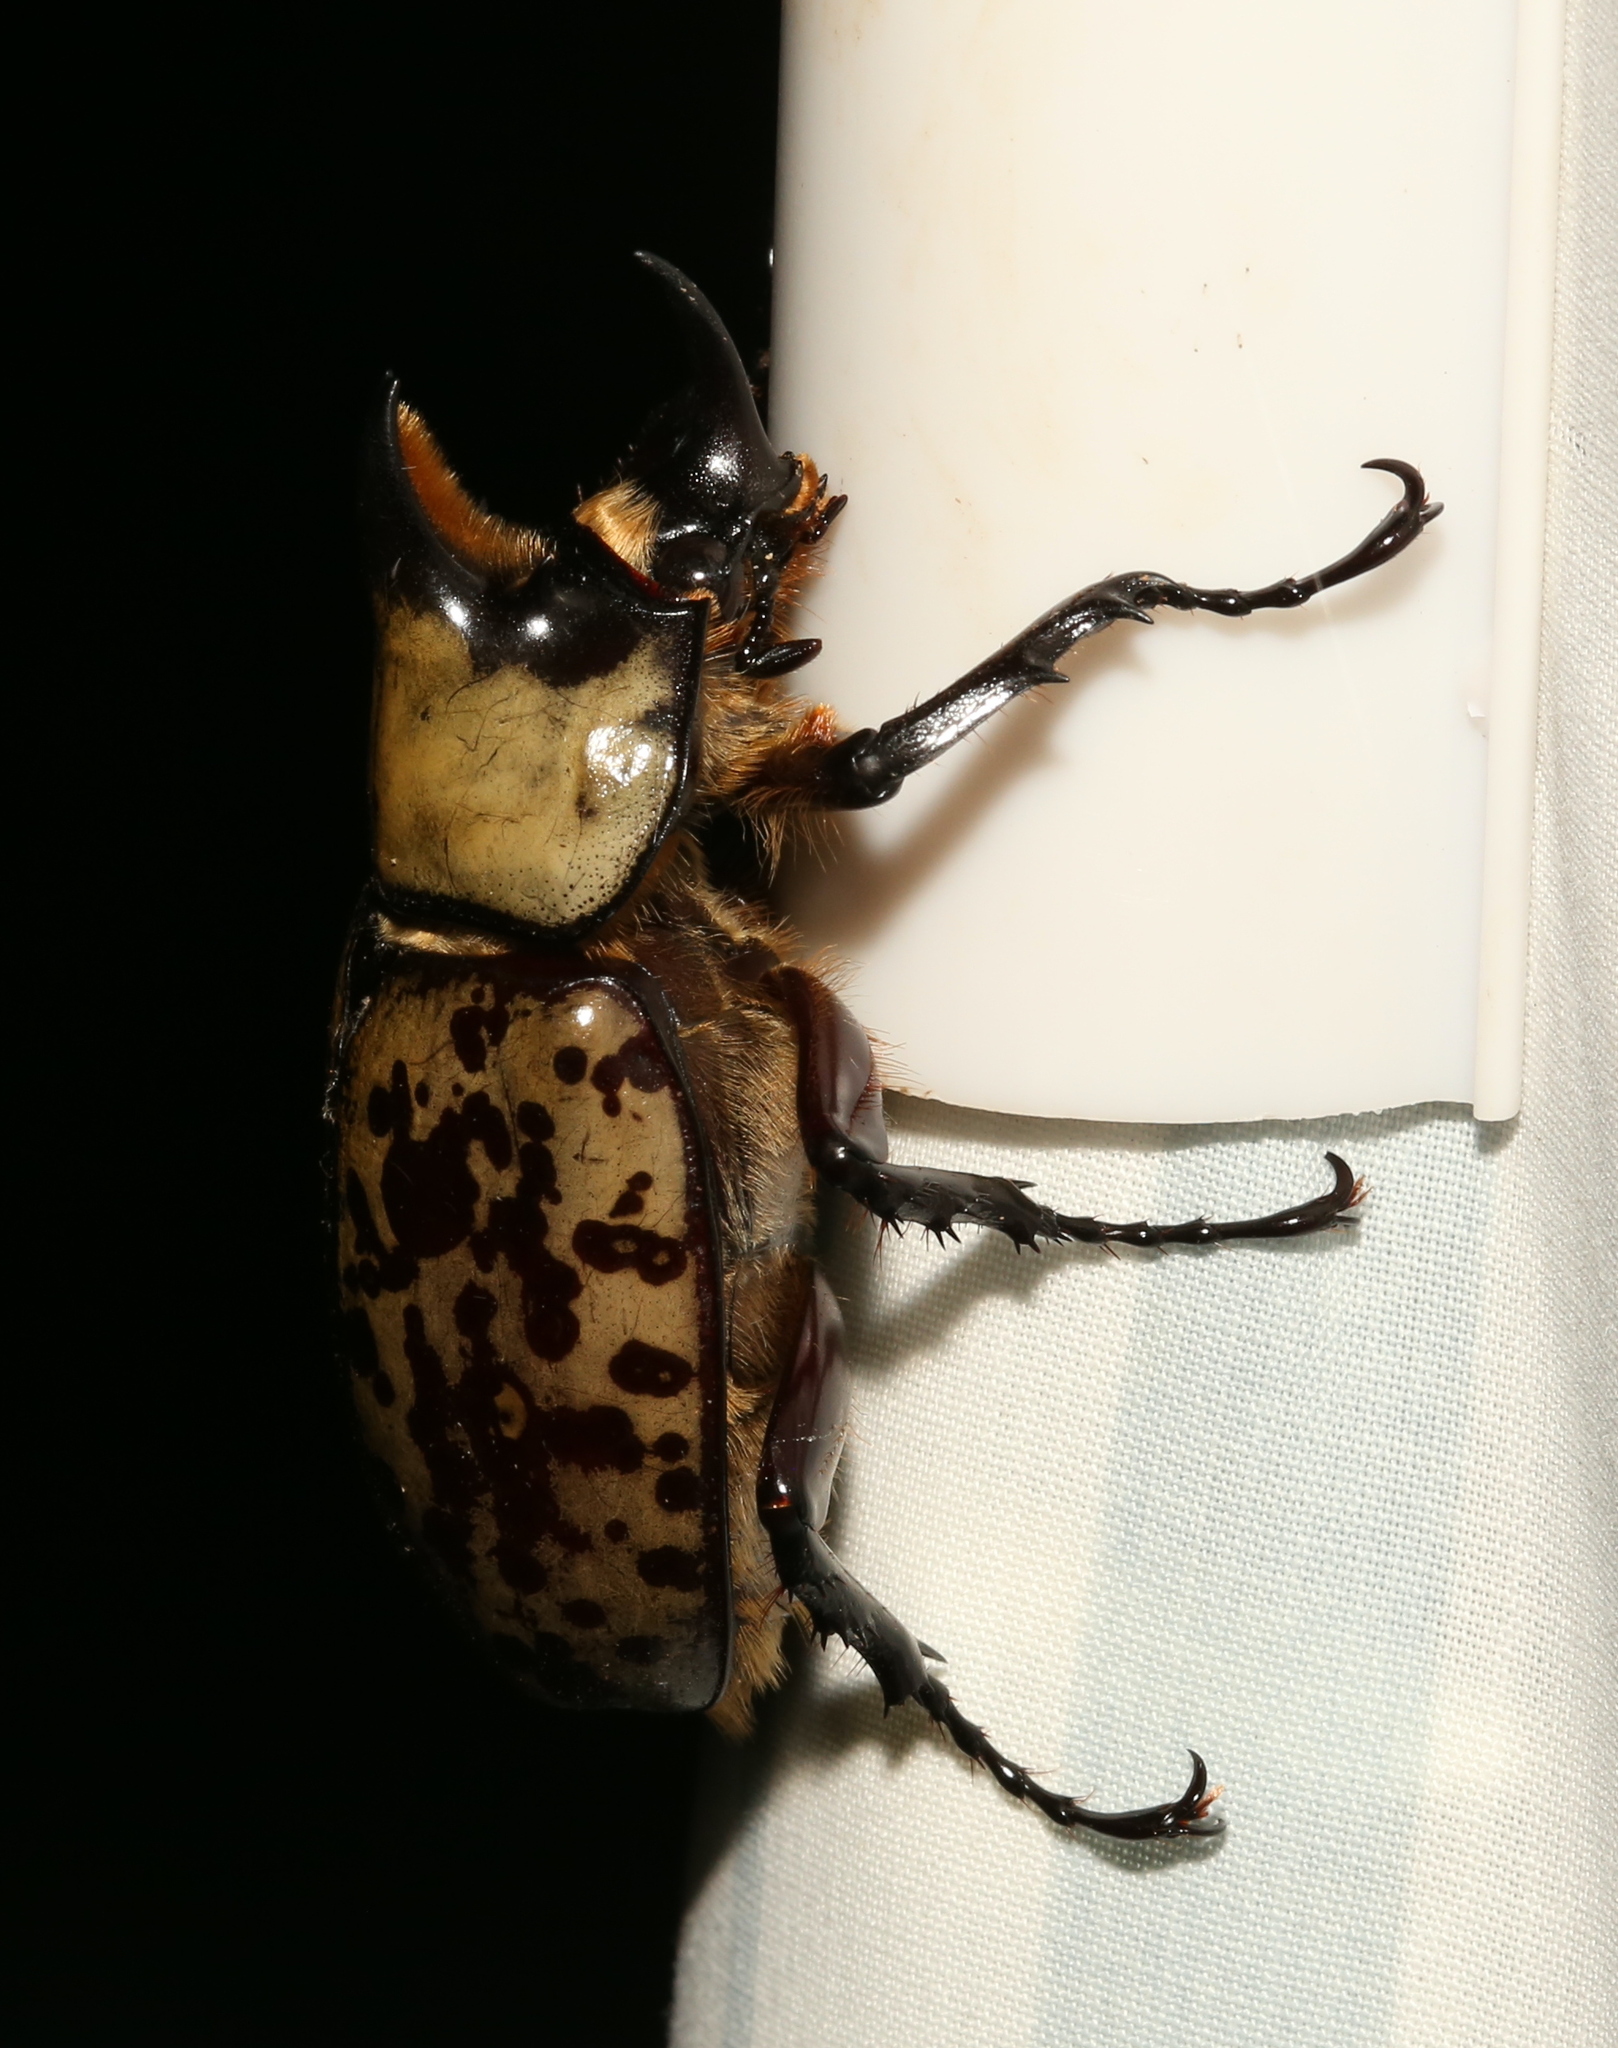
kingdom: Animalia
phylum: Arthropoda
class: Insecta
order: Coleoptera
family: Scarabaeidae
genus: Dynastes
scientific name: Dynastes tityus
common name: Eastern hercules beetle
